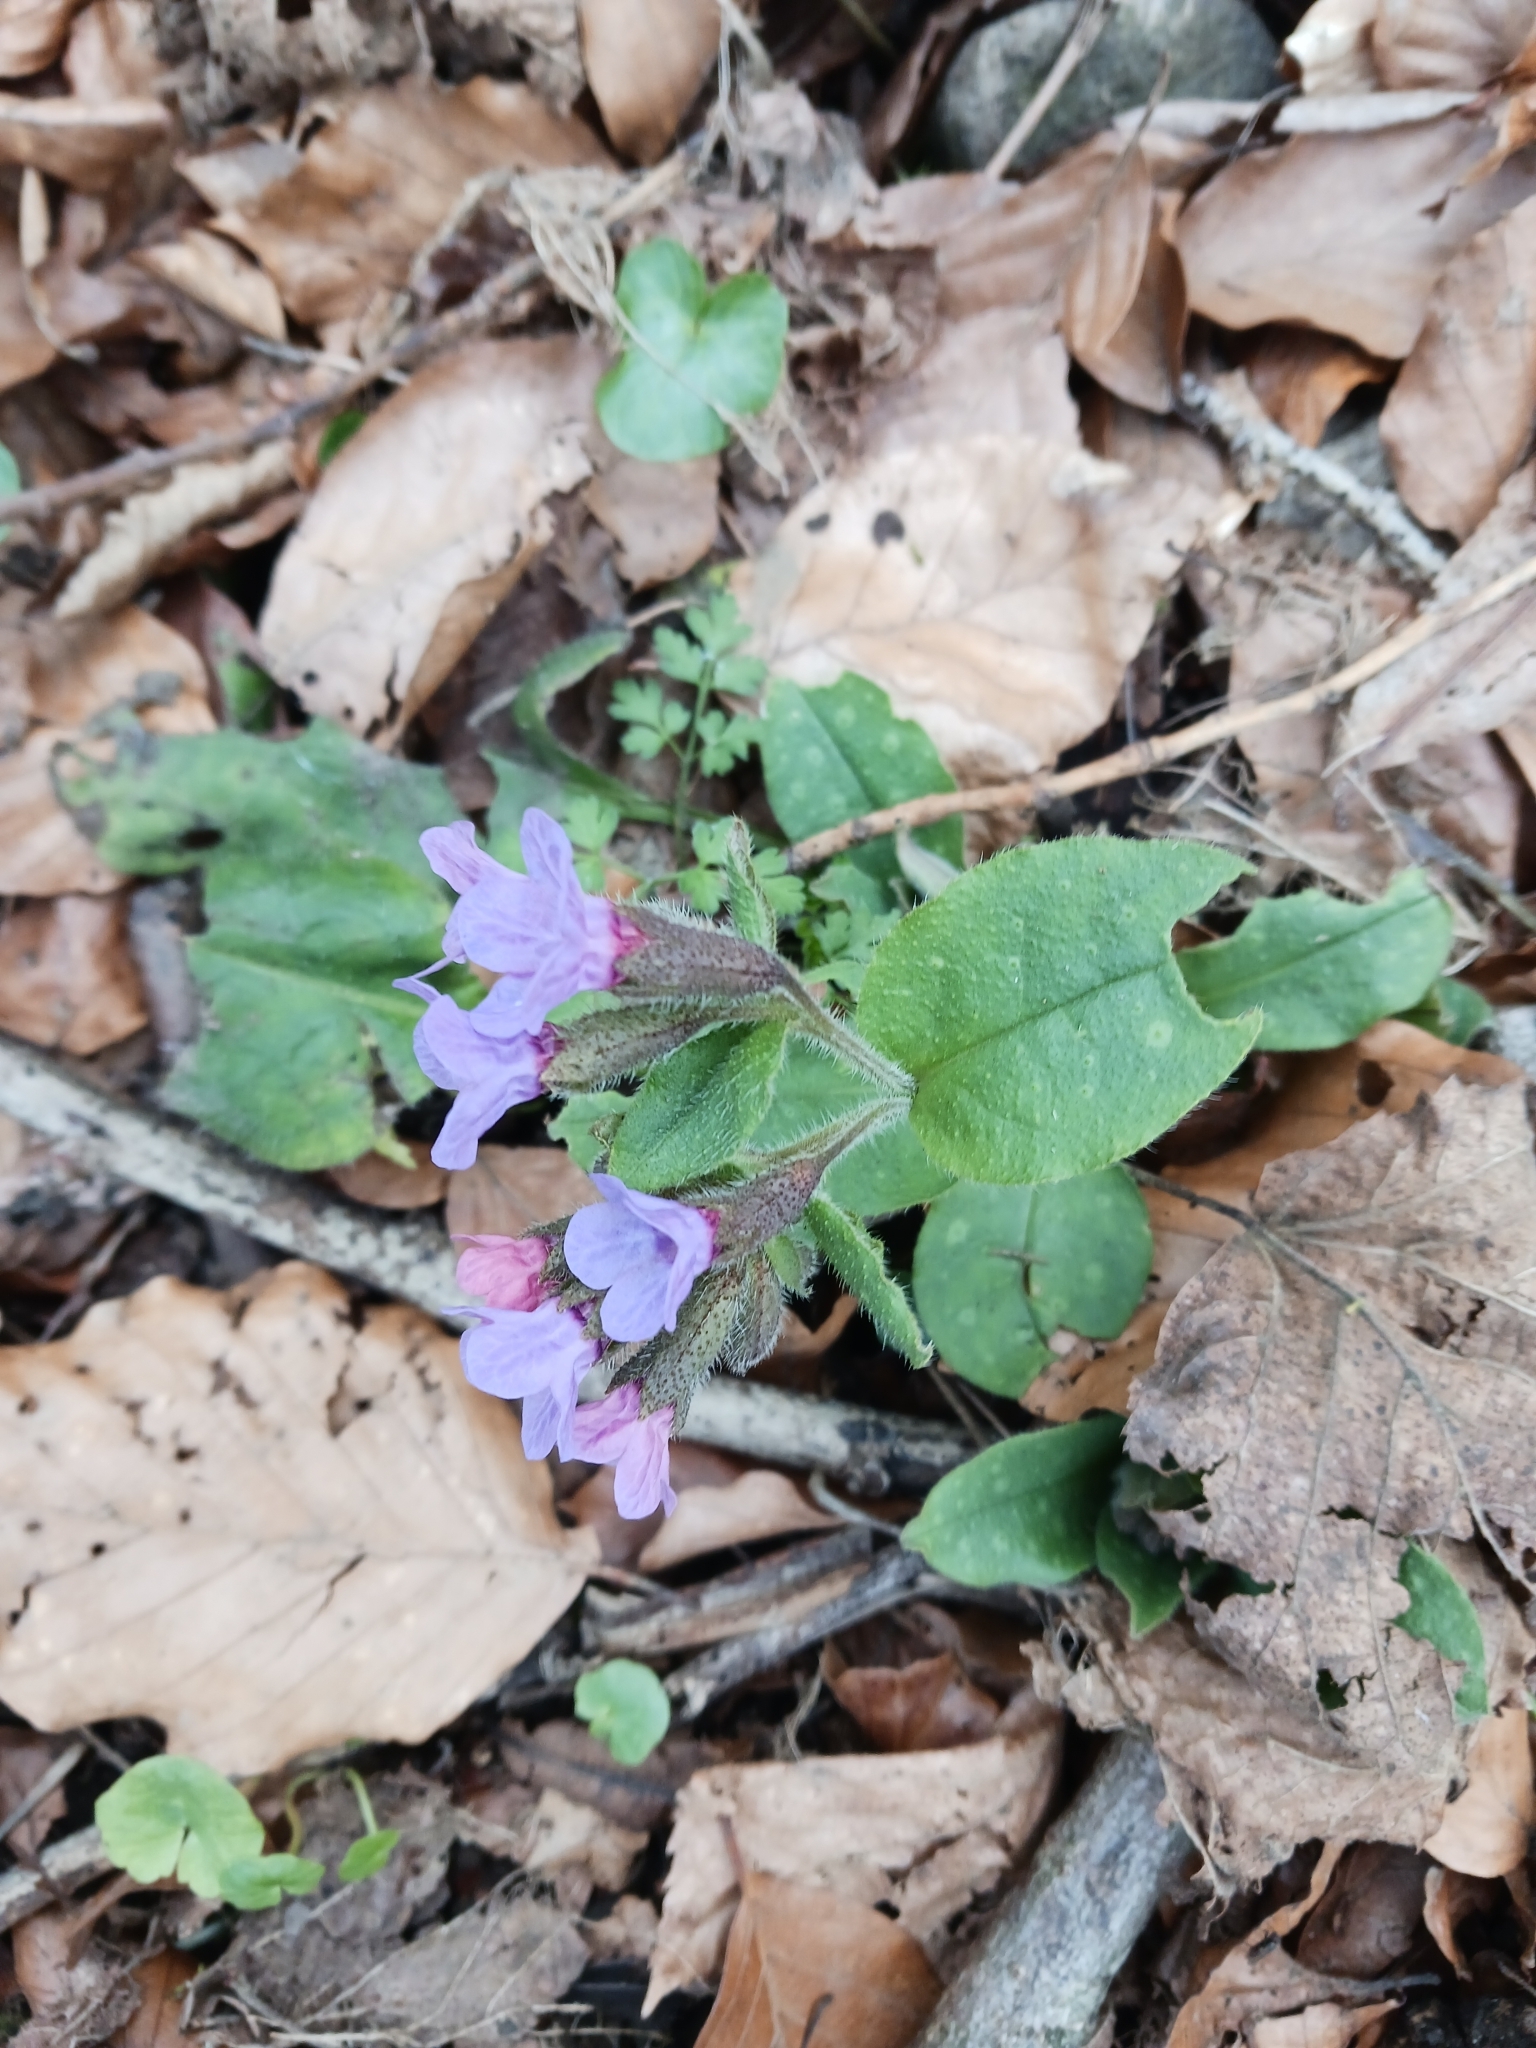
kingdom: Plantae
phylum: Tracheophyta
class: Magnoliopsida
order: Boraginales
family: Boraginaceae
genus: Pulmonaria
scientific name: Pulmonaria officinalis
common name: Lungwort
